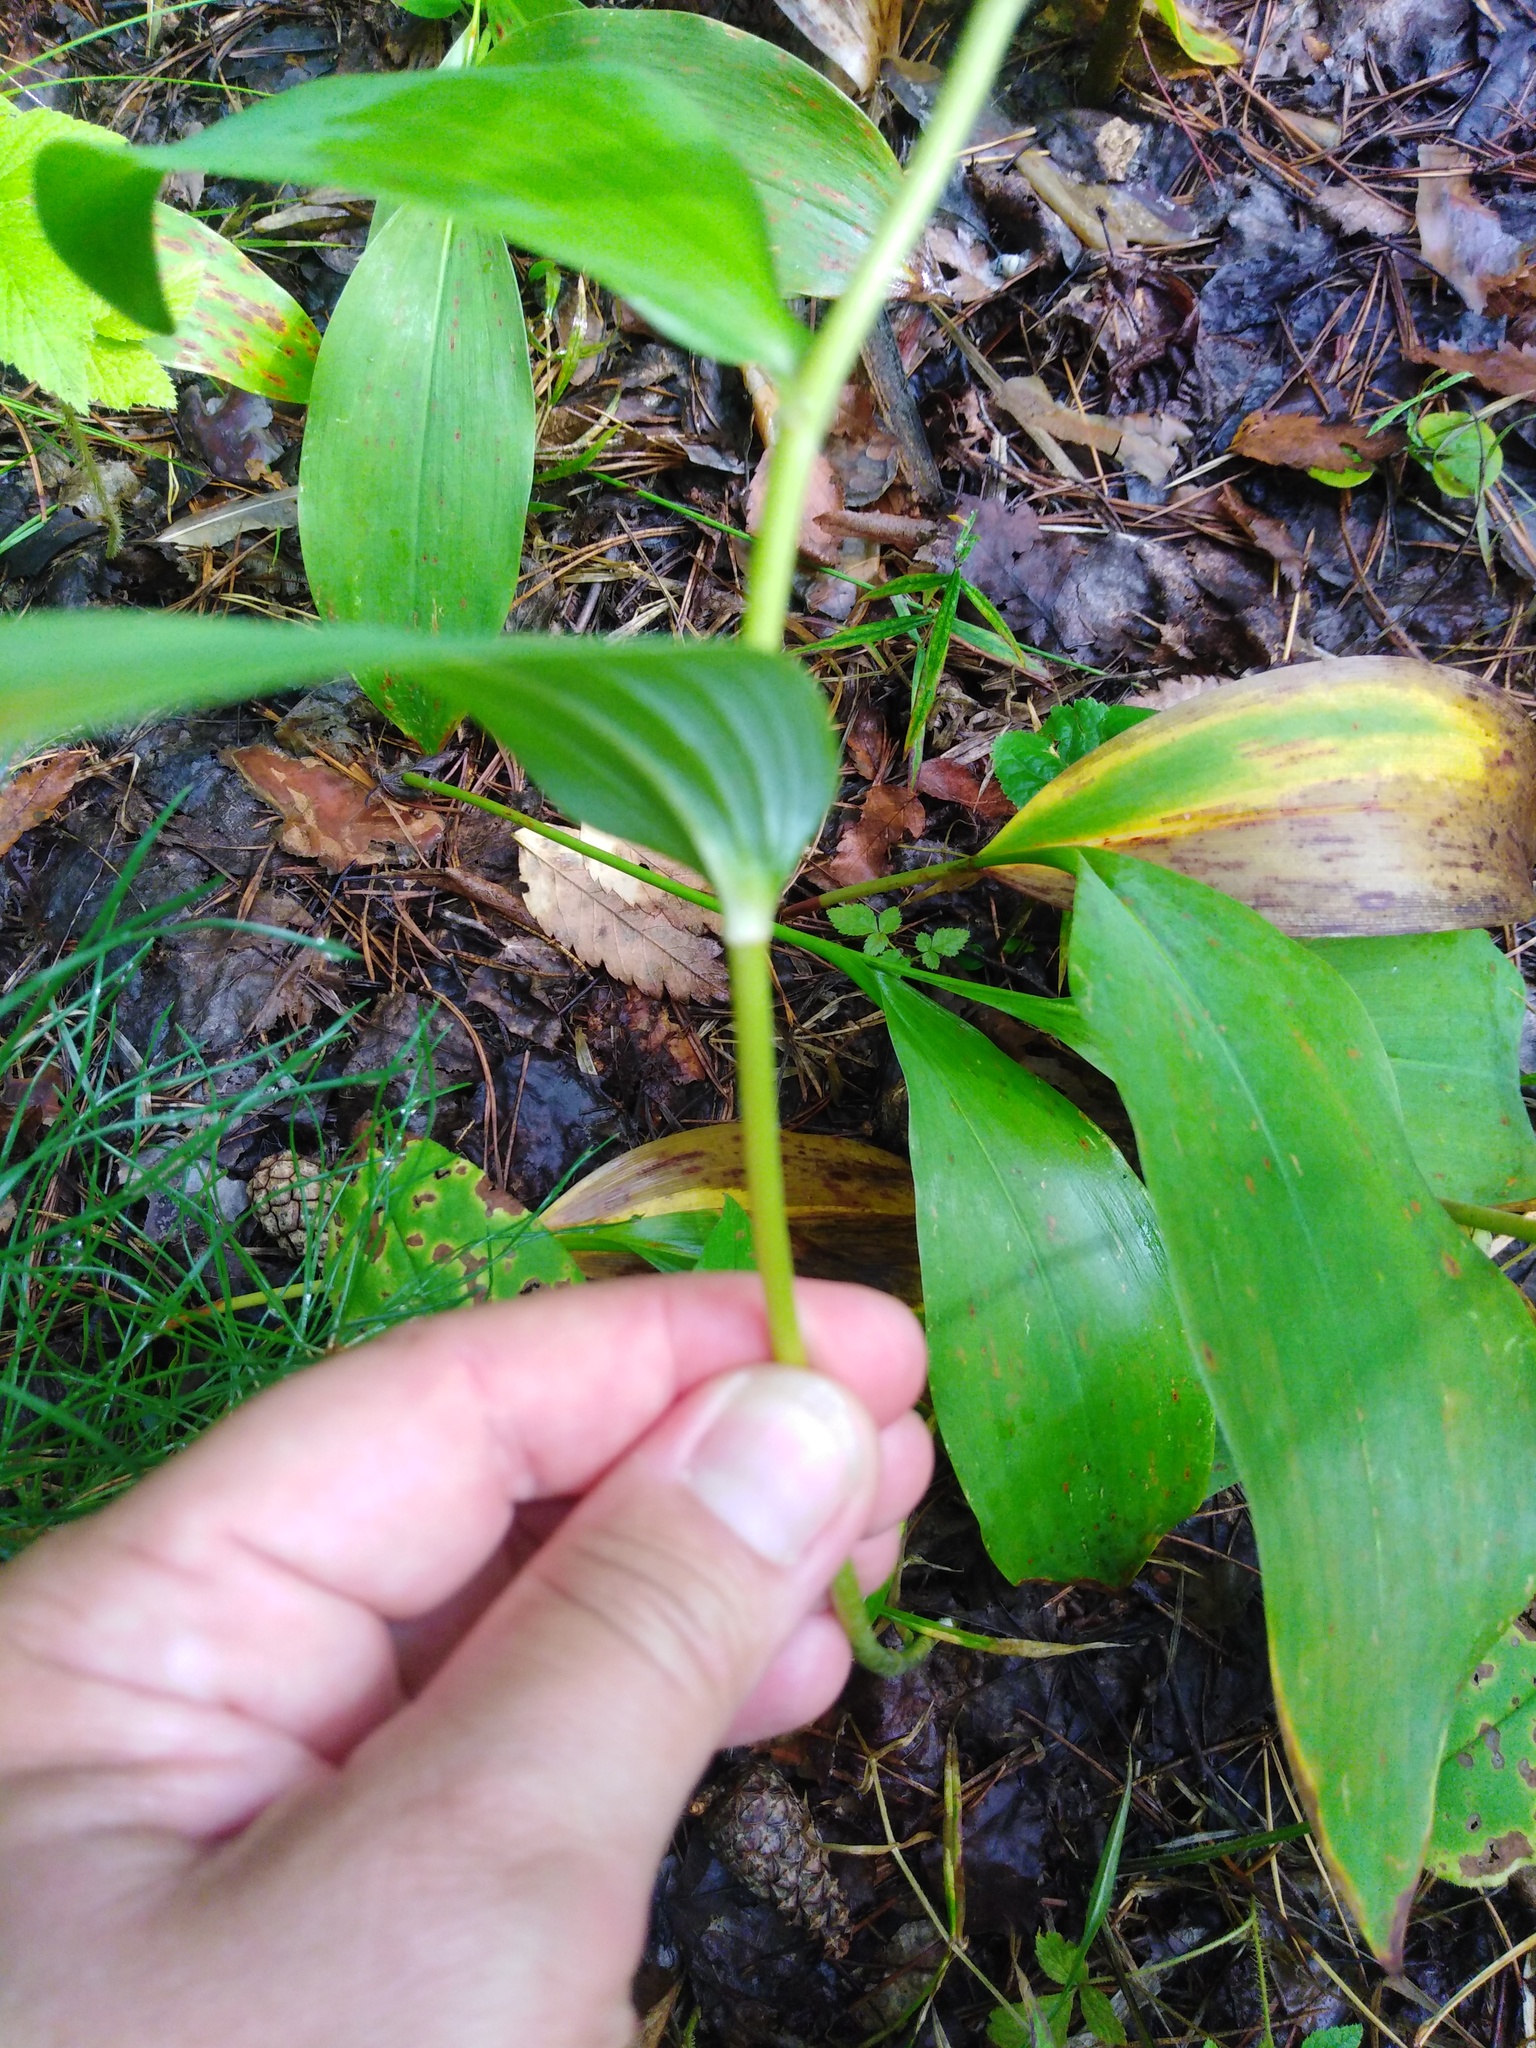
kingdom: Plantae
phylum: Tracheophyta
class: Liliopsida
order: Asparagales
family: Asparagaceae
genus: Polygonatum
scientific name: Polygonatum multiflorum
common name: Solomon's-seal
